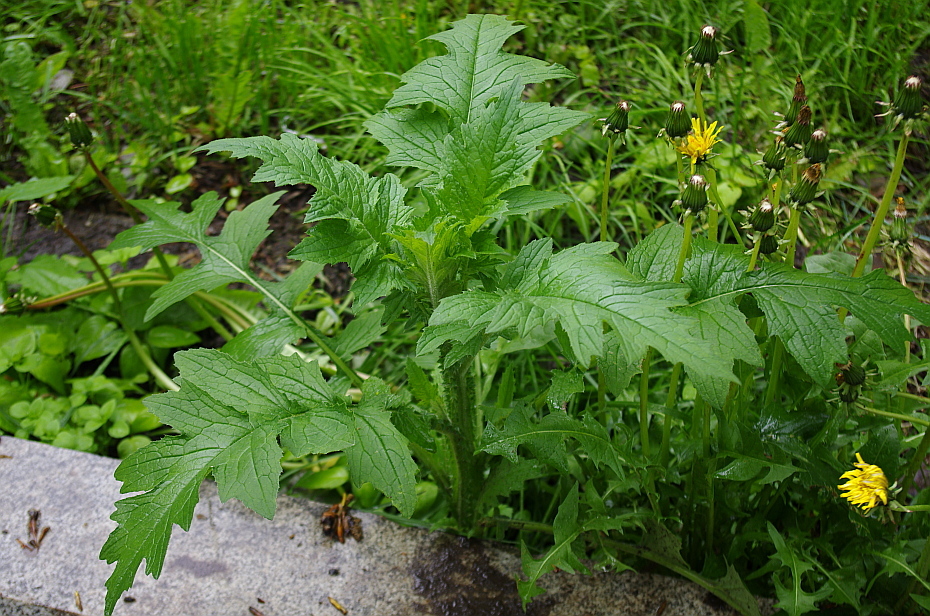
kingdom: Plantae
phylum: Tracheophyta
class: Magnoliopsida
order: Asterales
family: Asteraceae
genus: Carduus
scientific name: Carduus crispus
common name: Welted thistle
